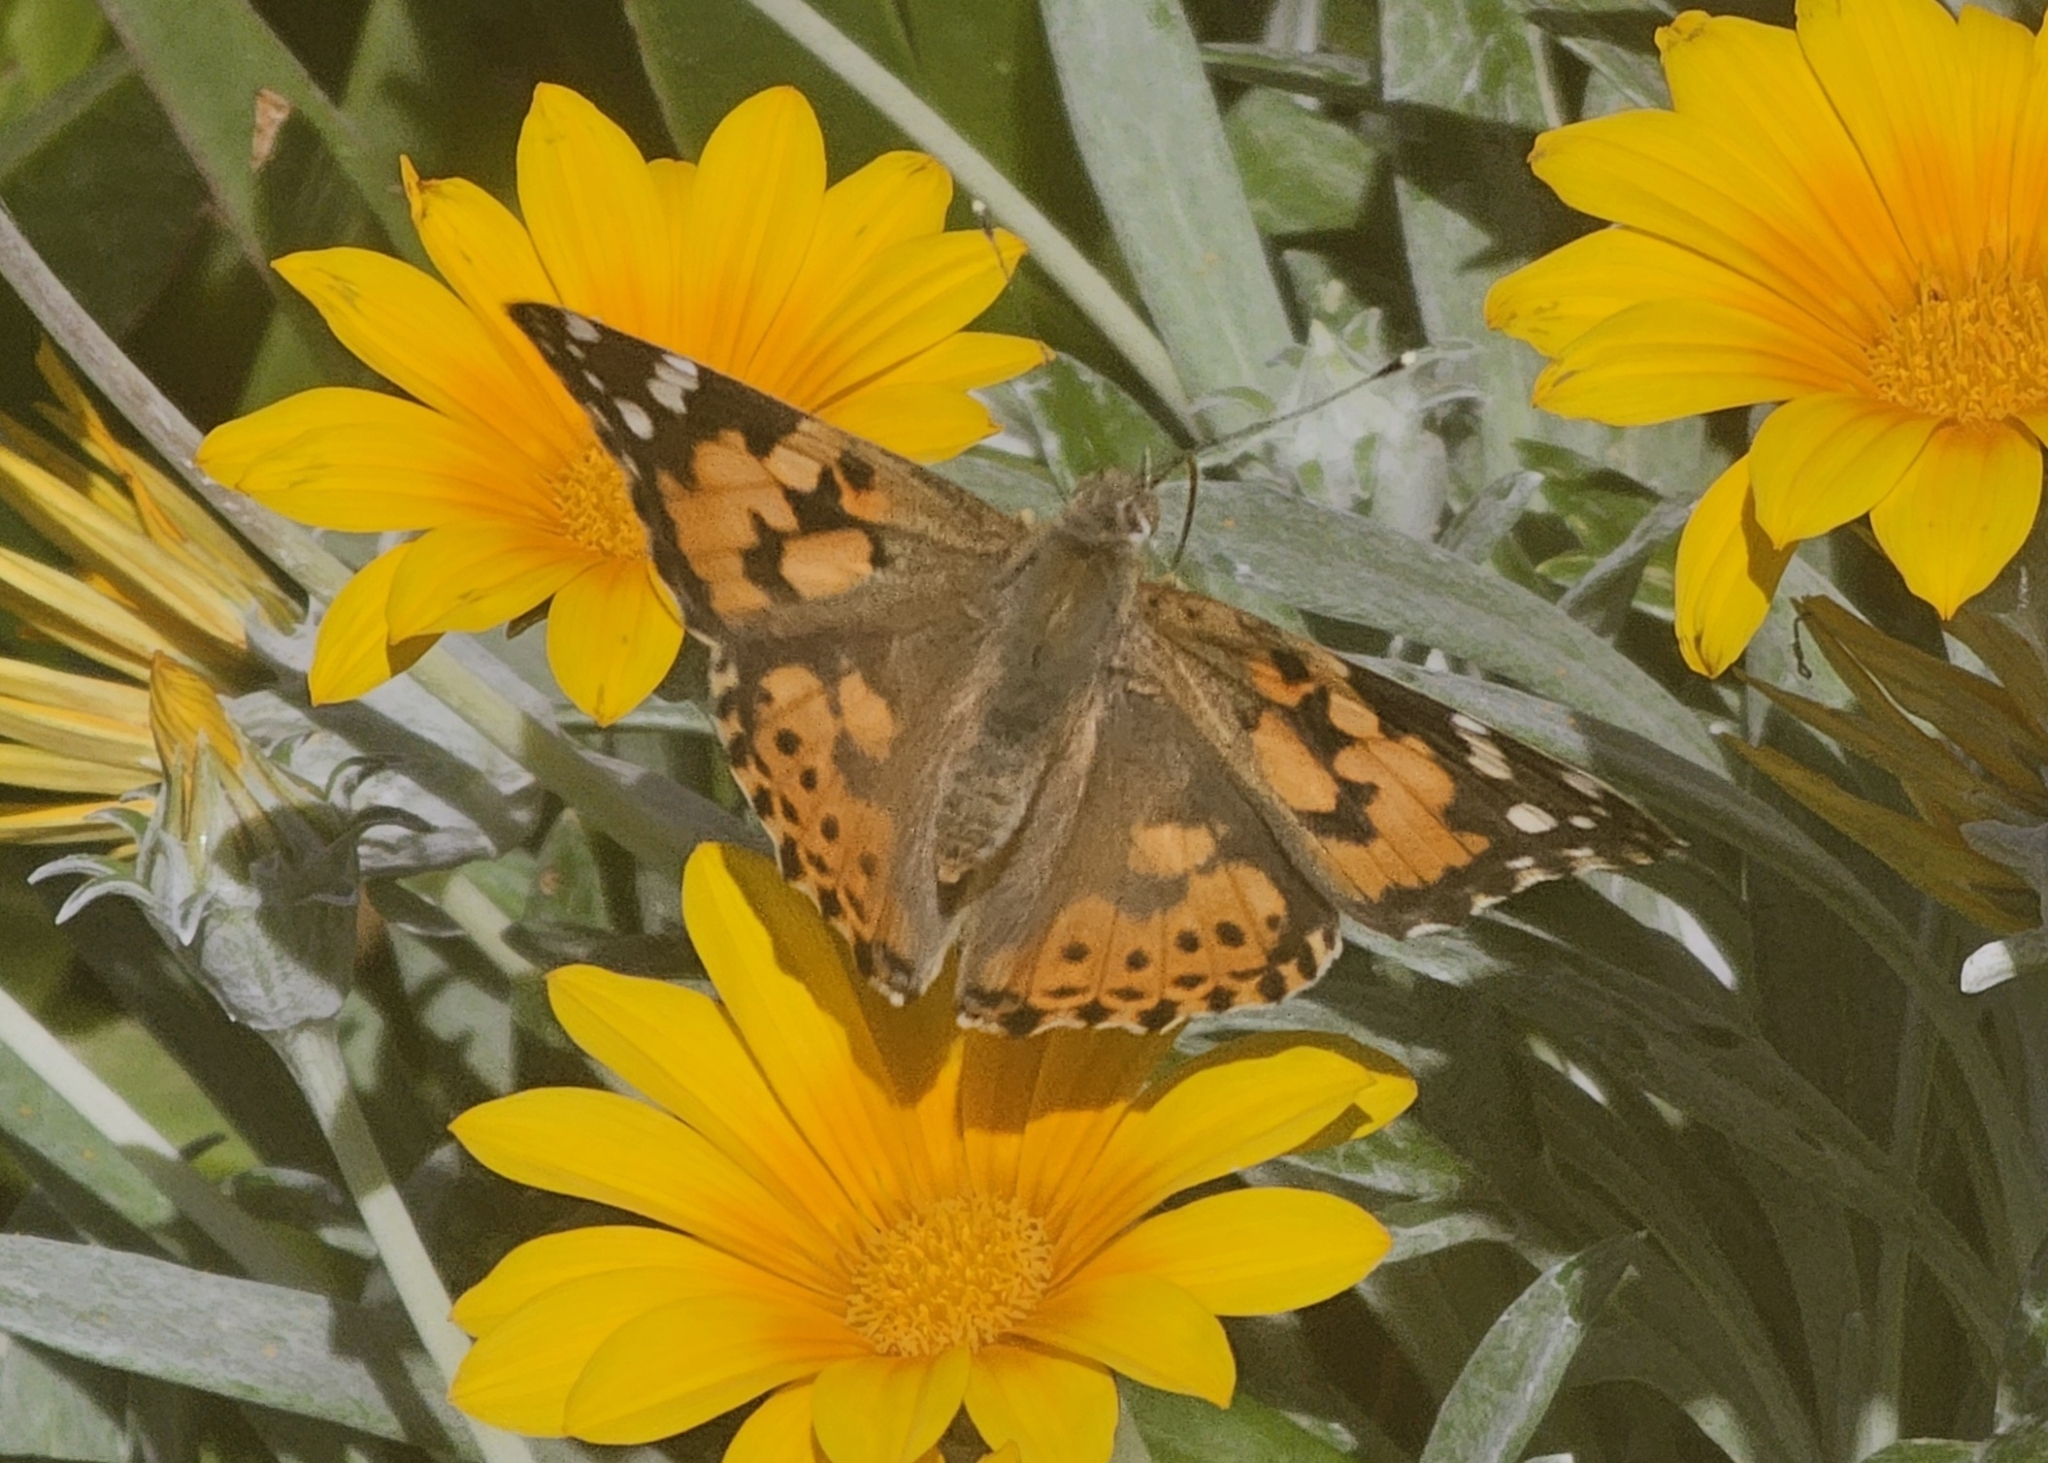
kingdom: Animalia
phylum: Arthropoda
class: Insecta
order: Lepidoptera
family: Nymphalidae
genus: Vanessa
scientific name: Vanessa cardui
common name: Painted lady
